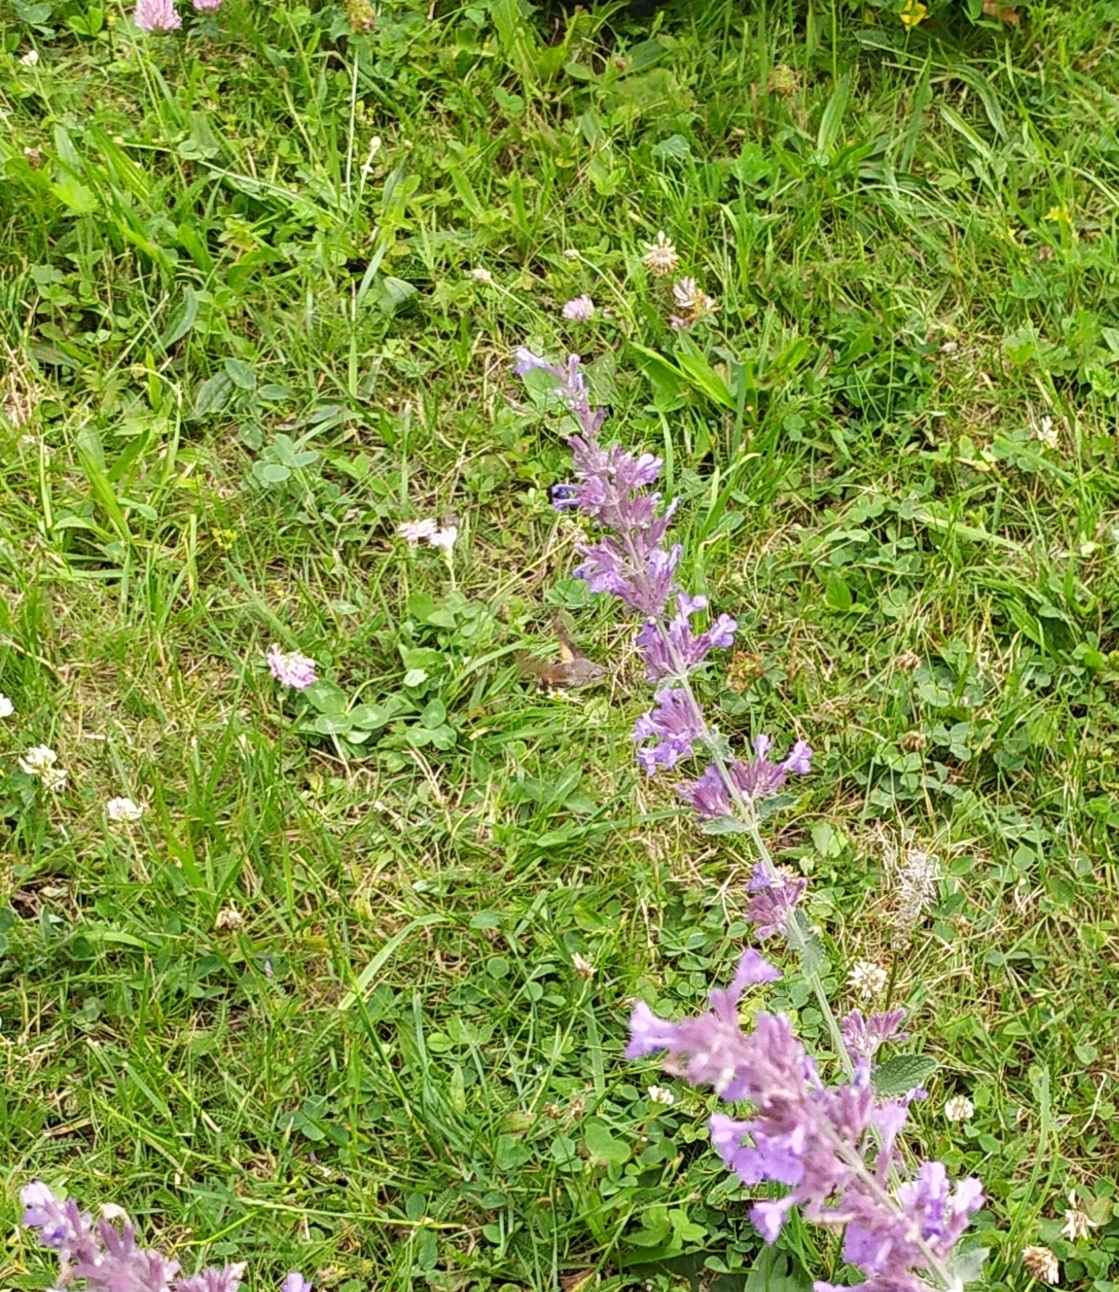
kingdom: Animalia
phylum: Arthropoda
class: Insecta
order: Lepidoptera
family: Sphingidae
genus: Macroglossum
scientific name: Macroglossum stellatarum
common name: Humming-bird hawk-moth
